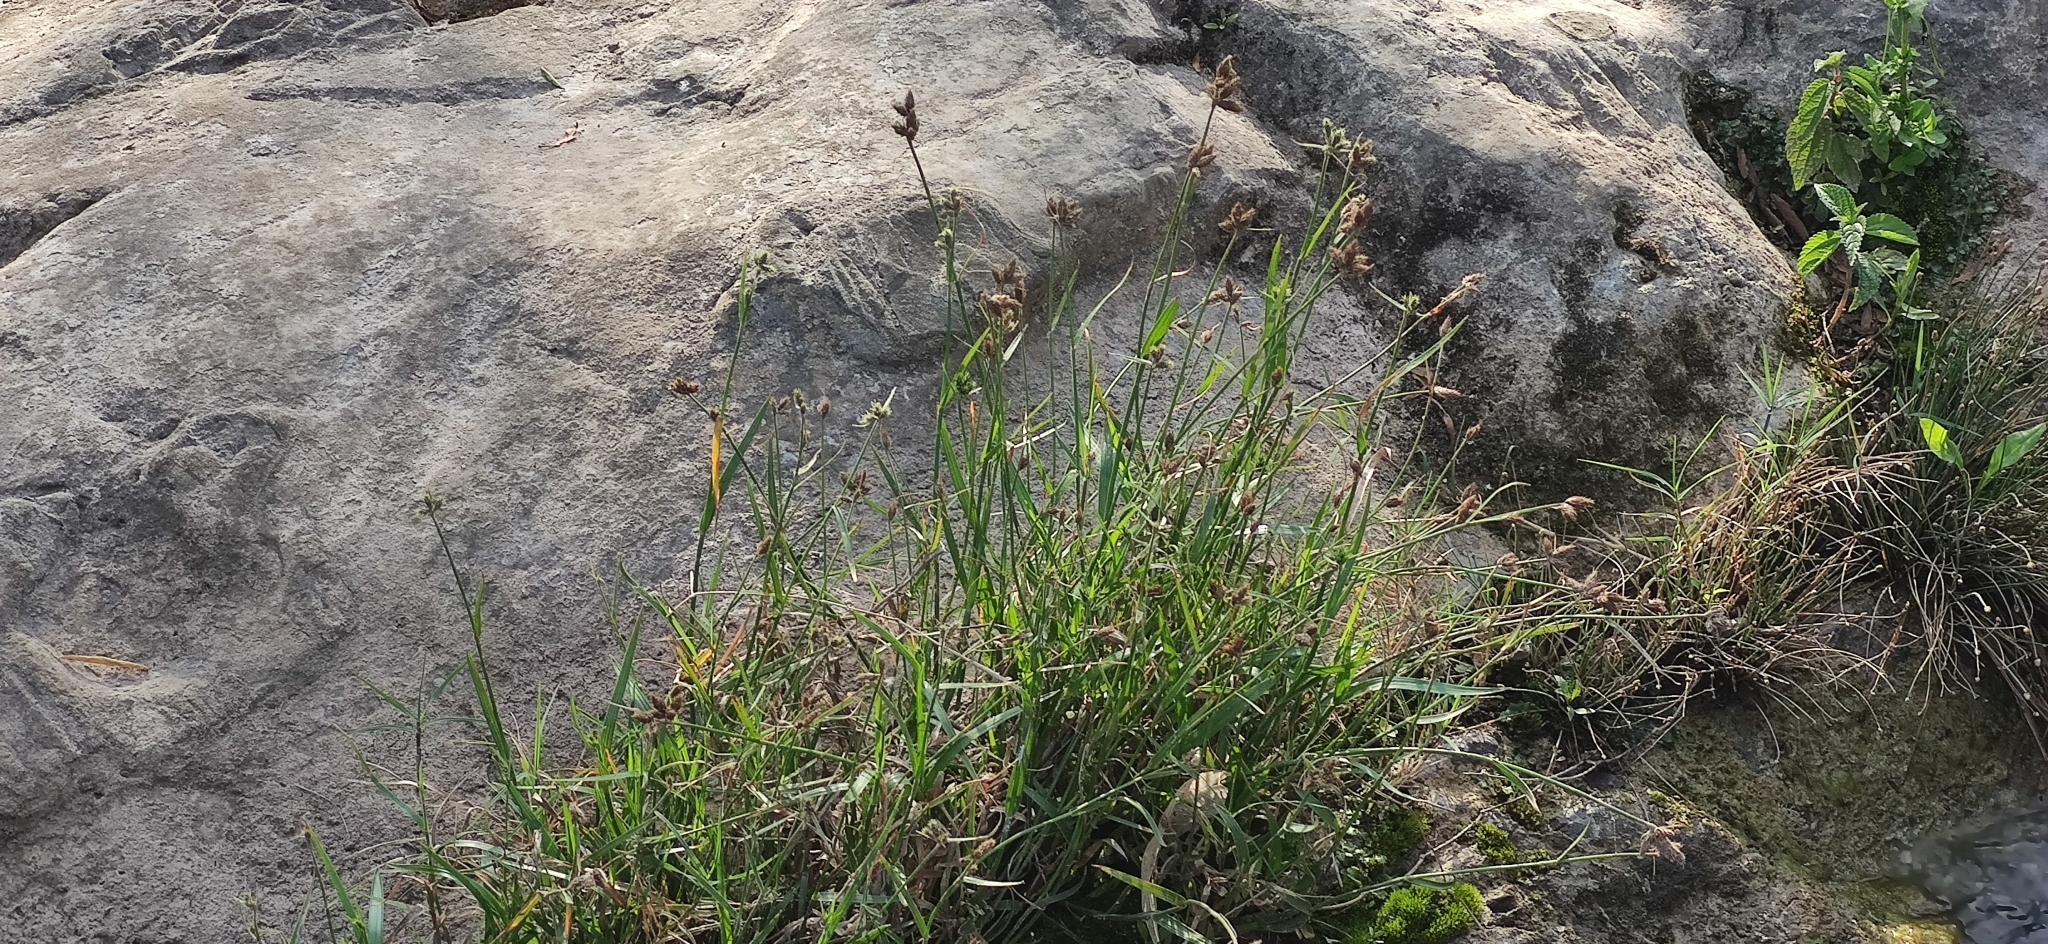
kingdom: Plantae
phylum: Tracheophyta
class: Liliopsida
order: Poales
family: Cyperaceae
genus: Fuirena
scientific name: Fuirena simplex
